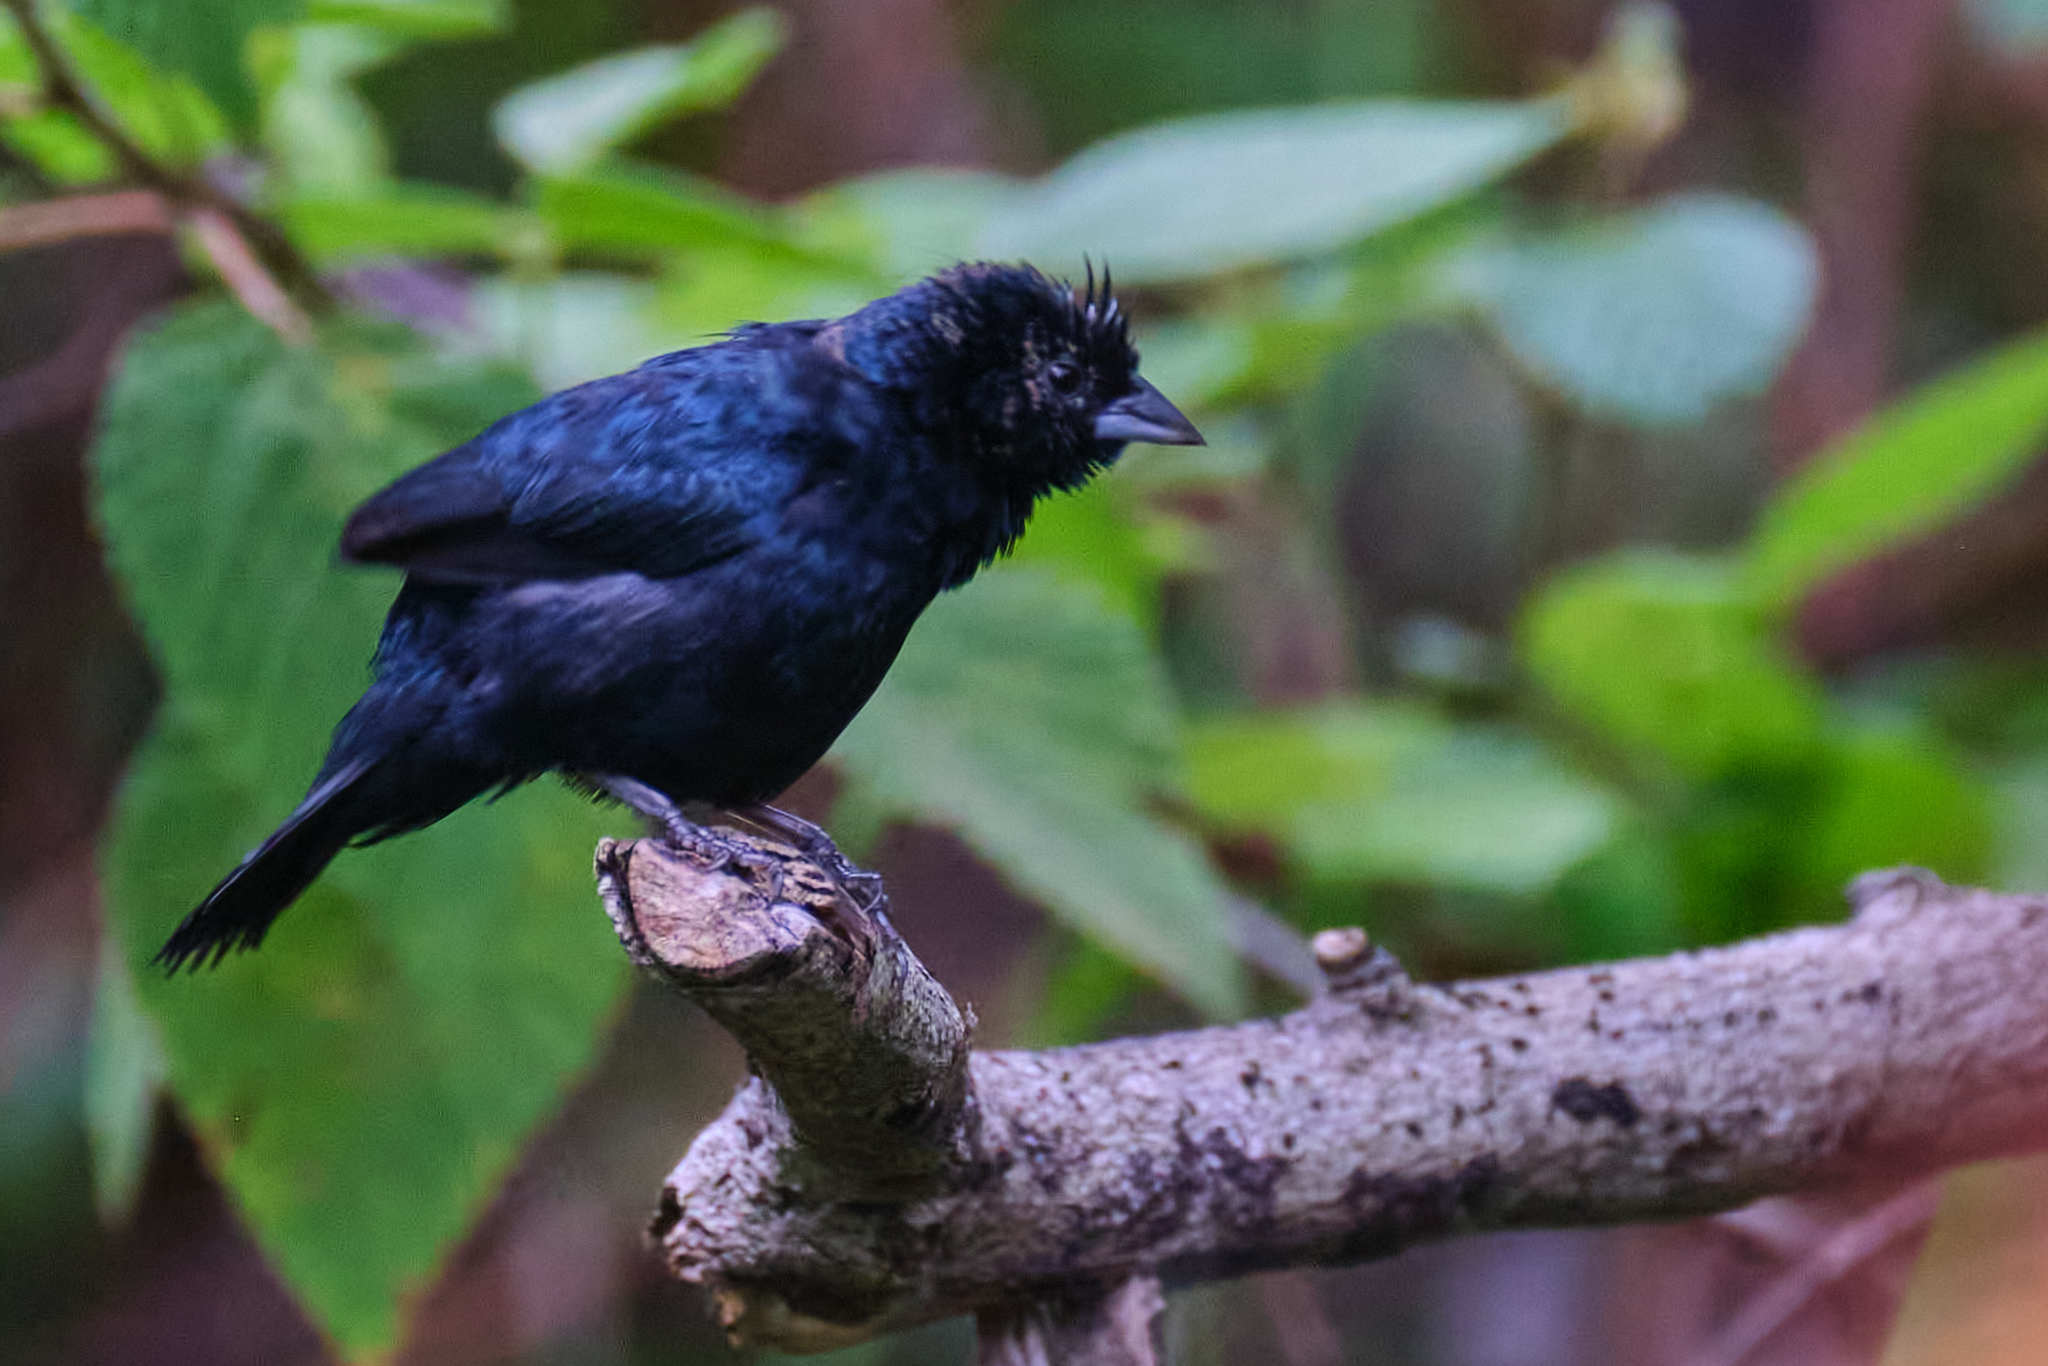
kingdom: Animalia
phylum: Chordata
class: Aves
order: Passeriformes
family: Thraupidae
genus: Volatinia
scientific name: Volatinia jacarina
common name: Blue-black grassquit
